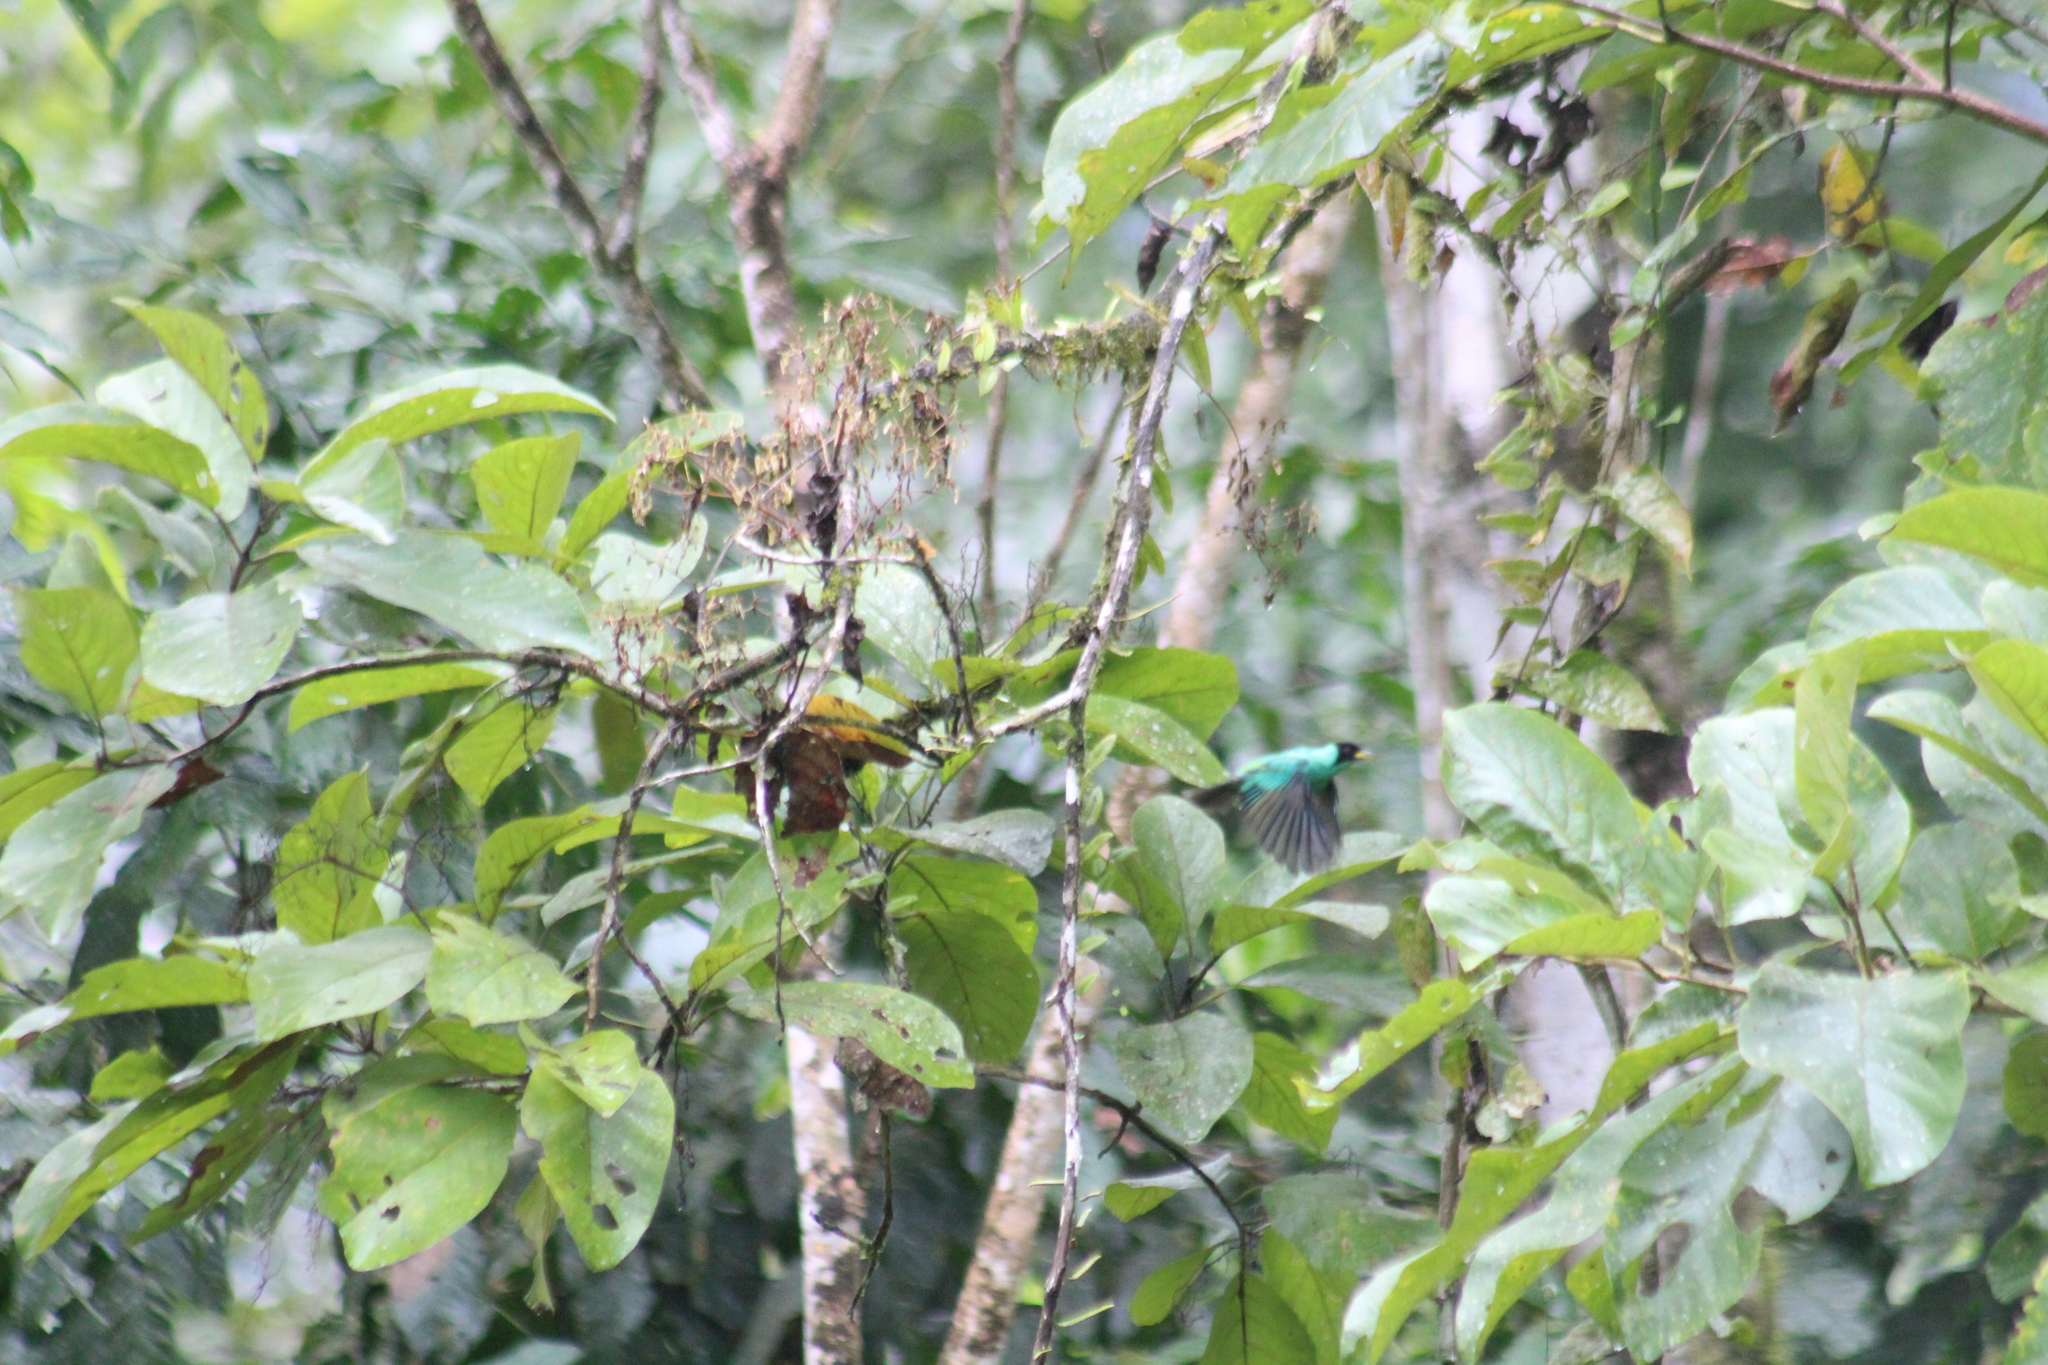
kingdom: Animalia
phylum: Chordata
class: Aves
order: Passeriformes
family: Thraupidae
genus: Chlorophanes
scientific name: Chlorophanes spiza
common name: Green honeycreeper
